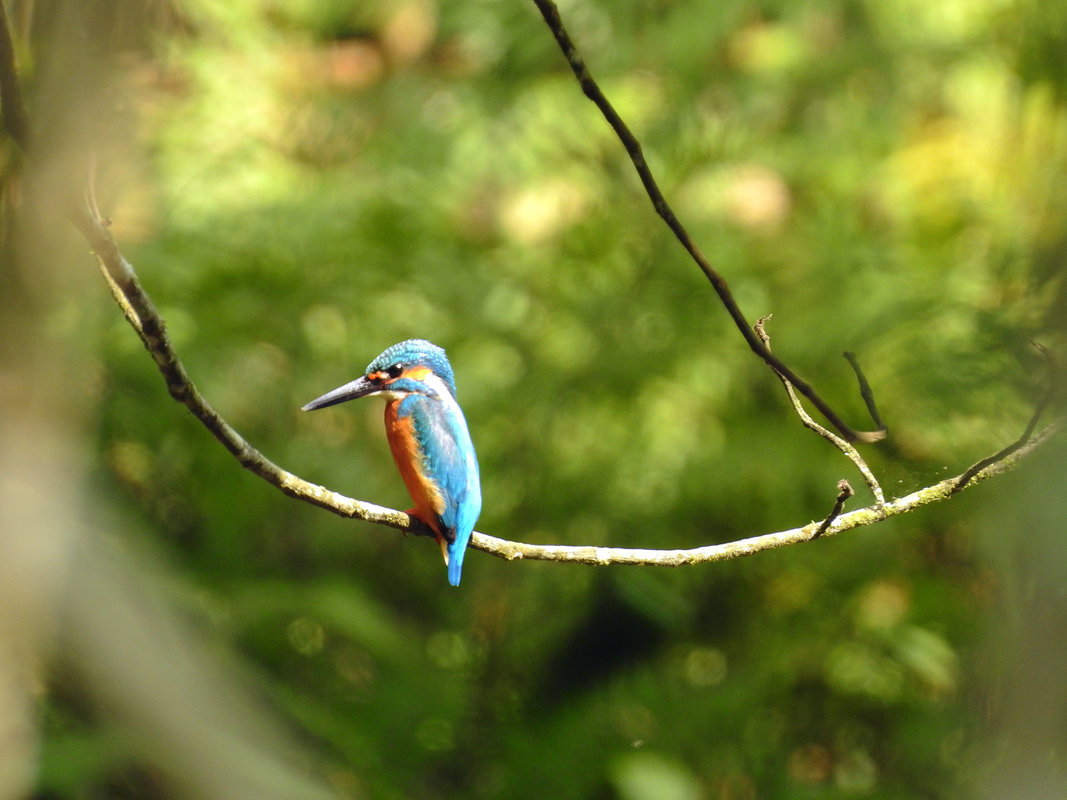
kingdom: Animalia
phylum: Chordata
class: Aves
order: Coraciiformes
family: Alcedinidae
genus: Alcedo
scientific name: Alcedo atthis
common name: Common kingfisher
